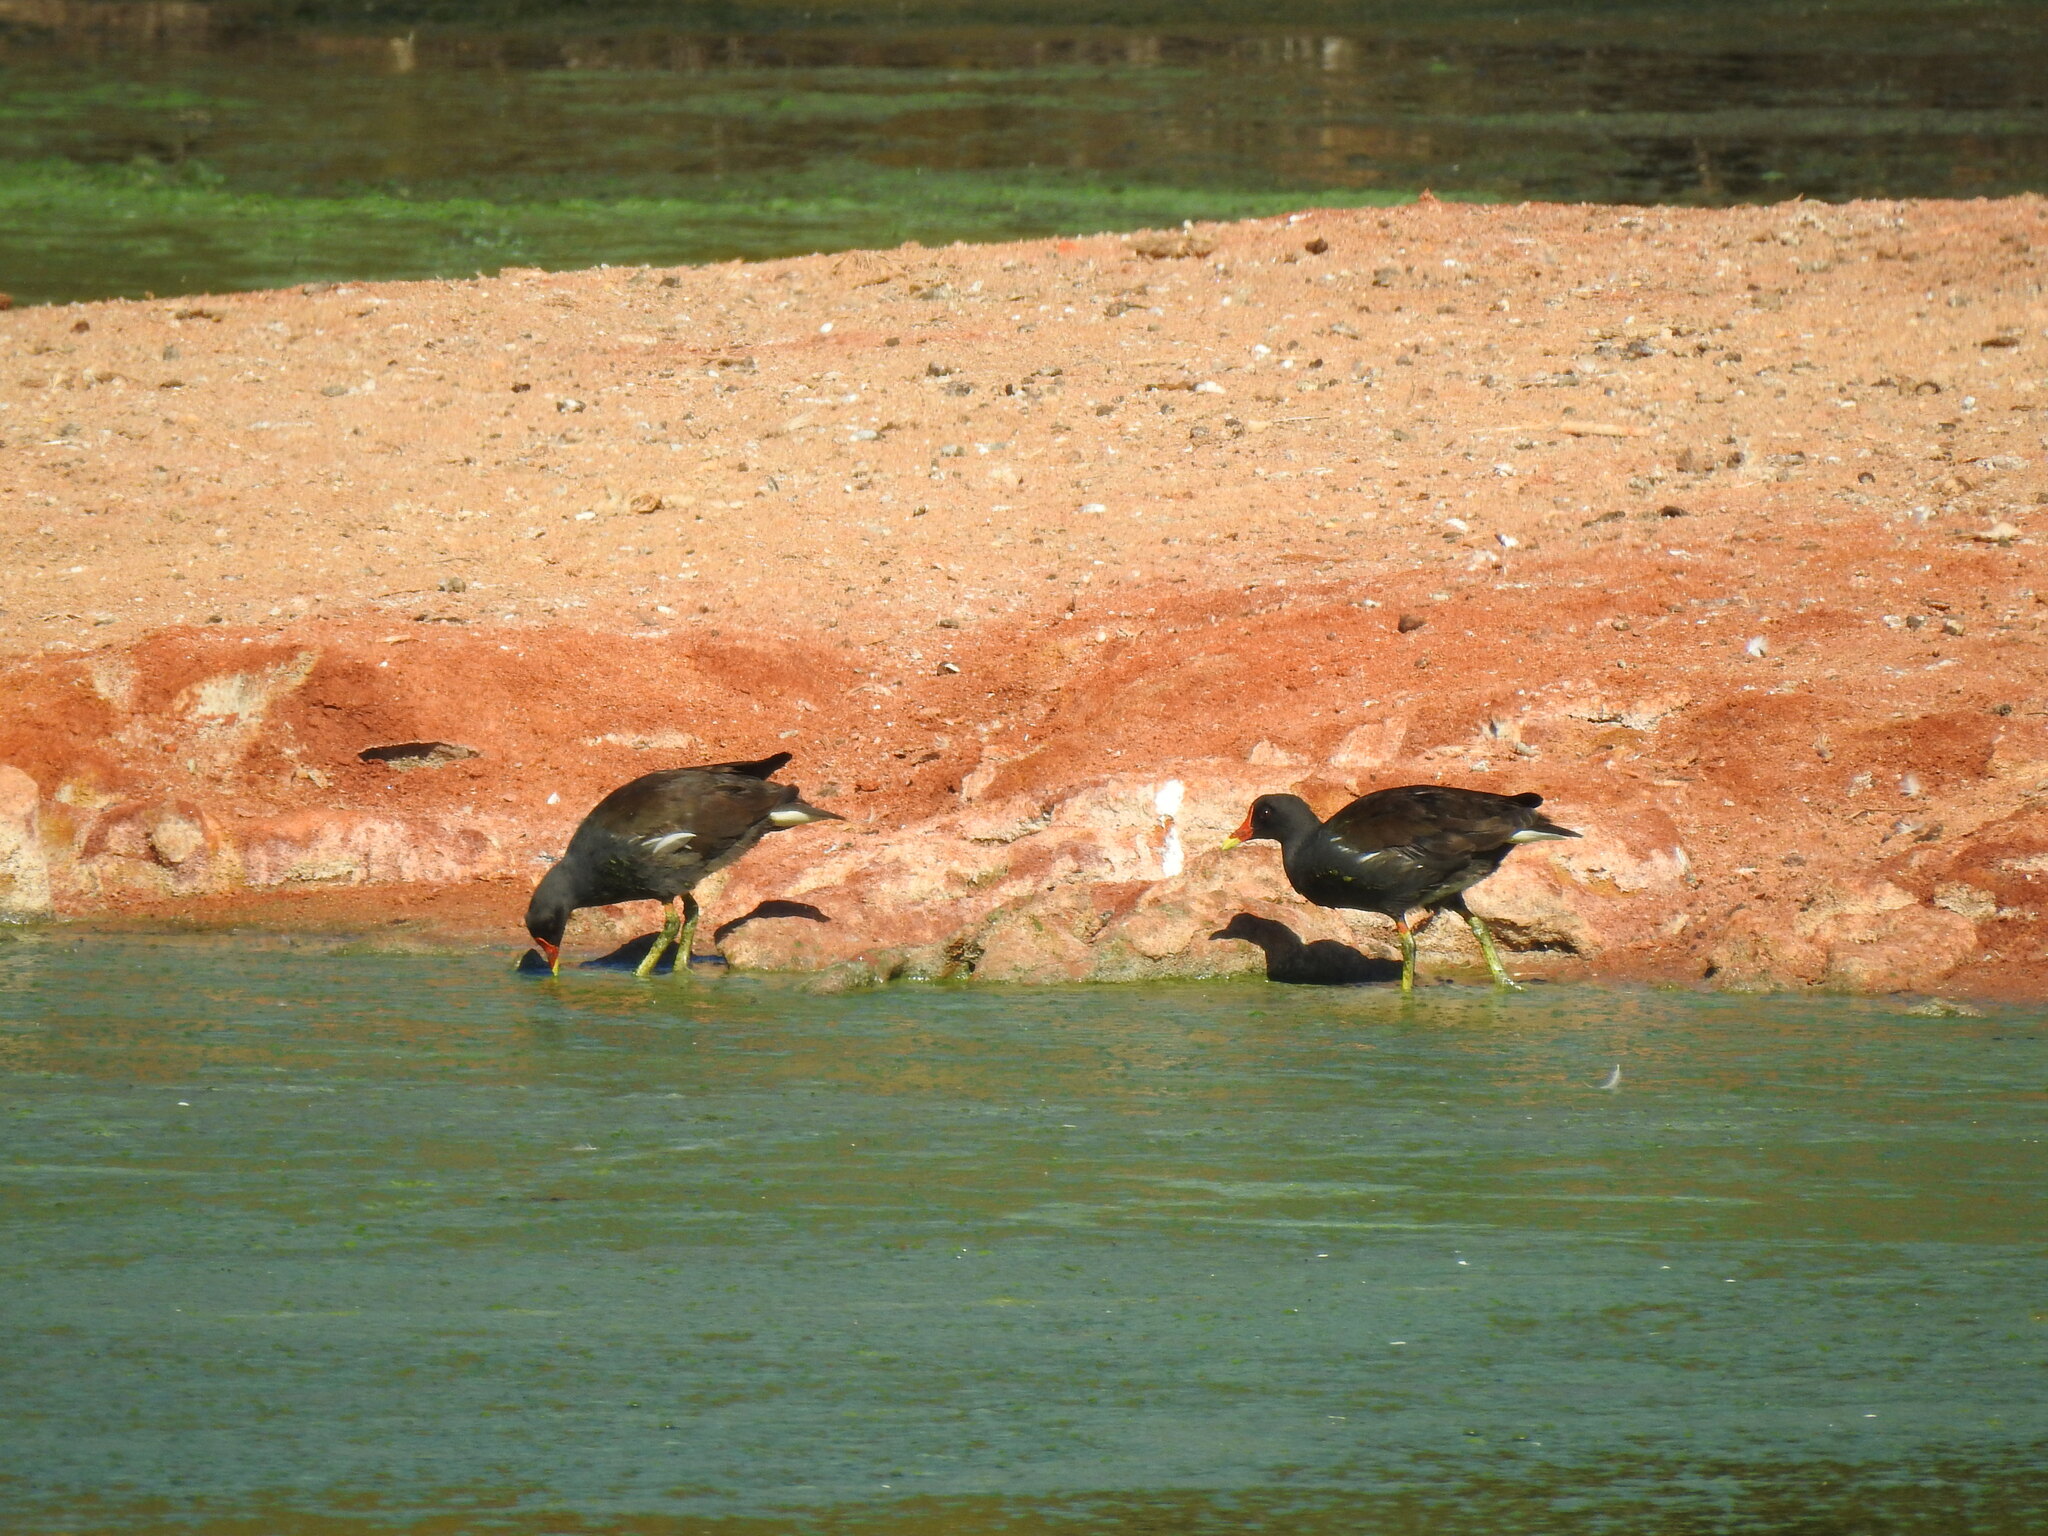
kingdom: Animalia
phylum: Chordata
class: Aves
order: Gruiformes
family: Rallidae
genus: Gallinula
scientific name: Gallinula chloropus
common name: Common moorhen
